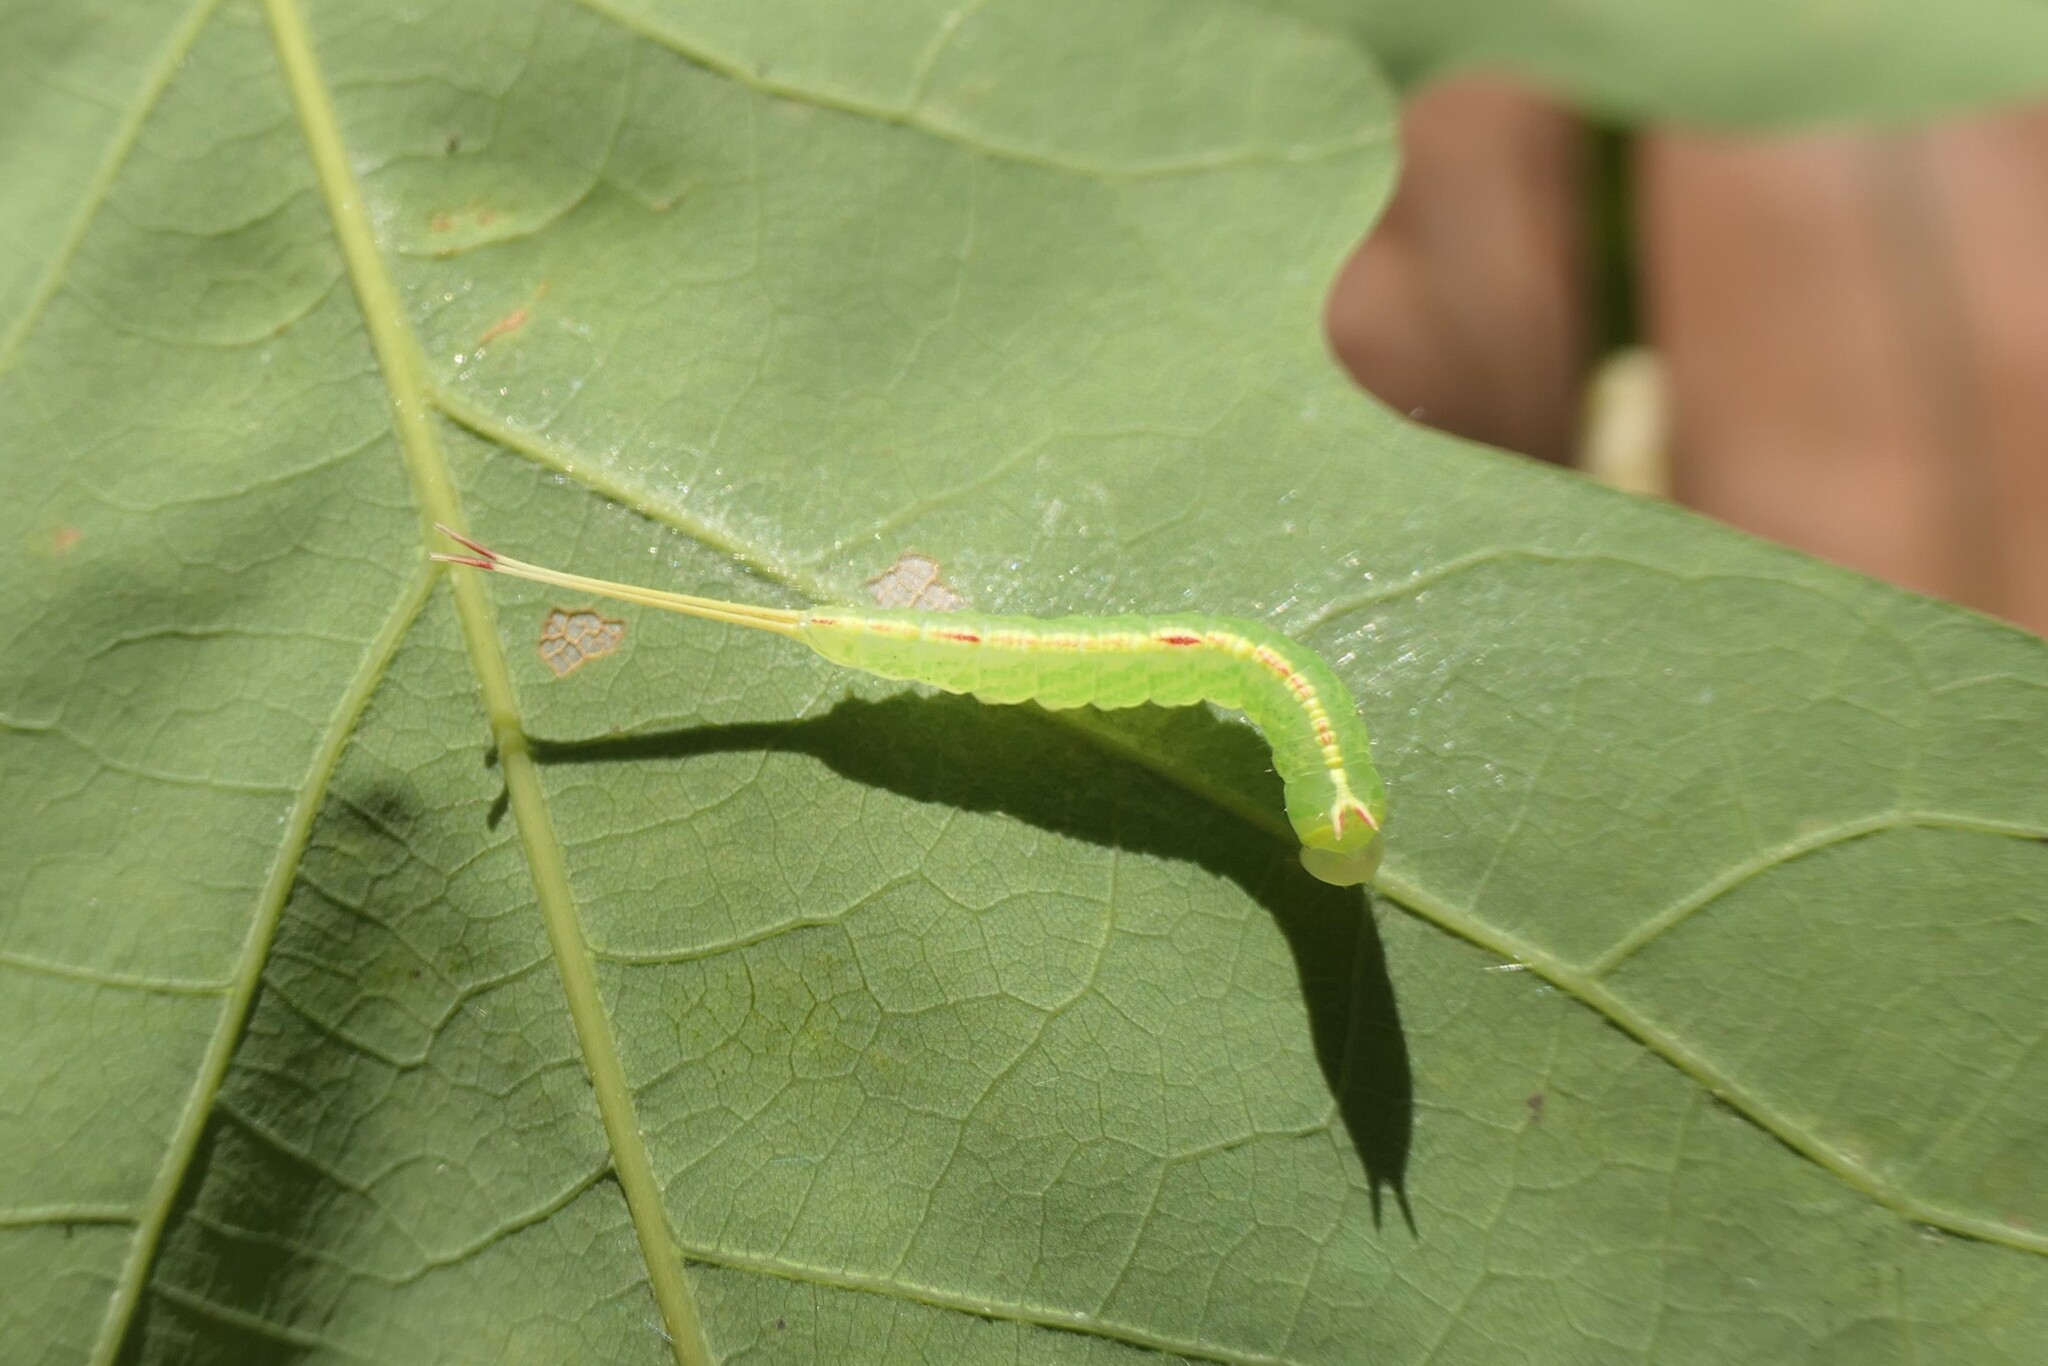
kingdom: Animalia
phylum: Arthropoda
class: Insecta
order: Lepidoptera
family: Notodontidae
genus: Macrurocampa
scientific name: Macrurocampa marthesia
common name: Mottled prominent
